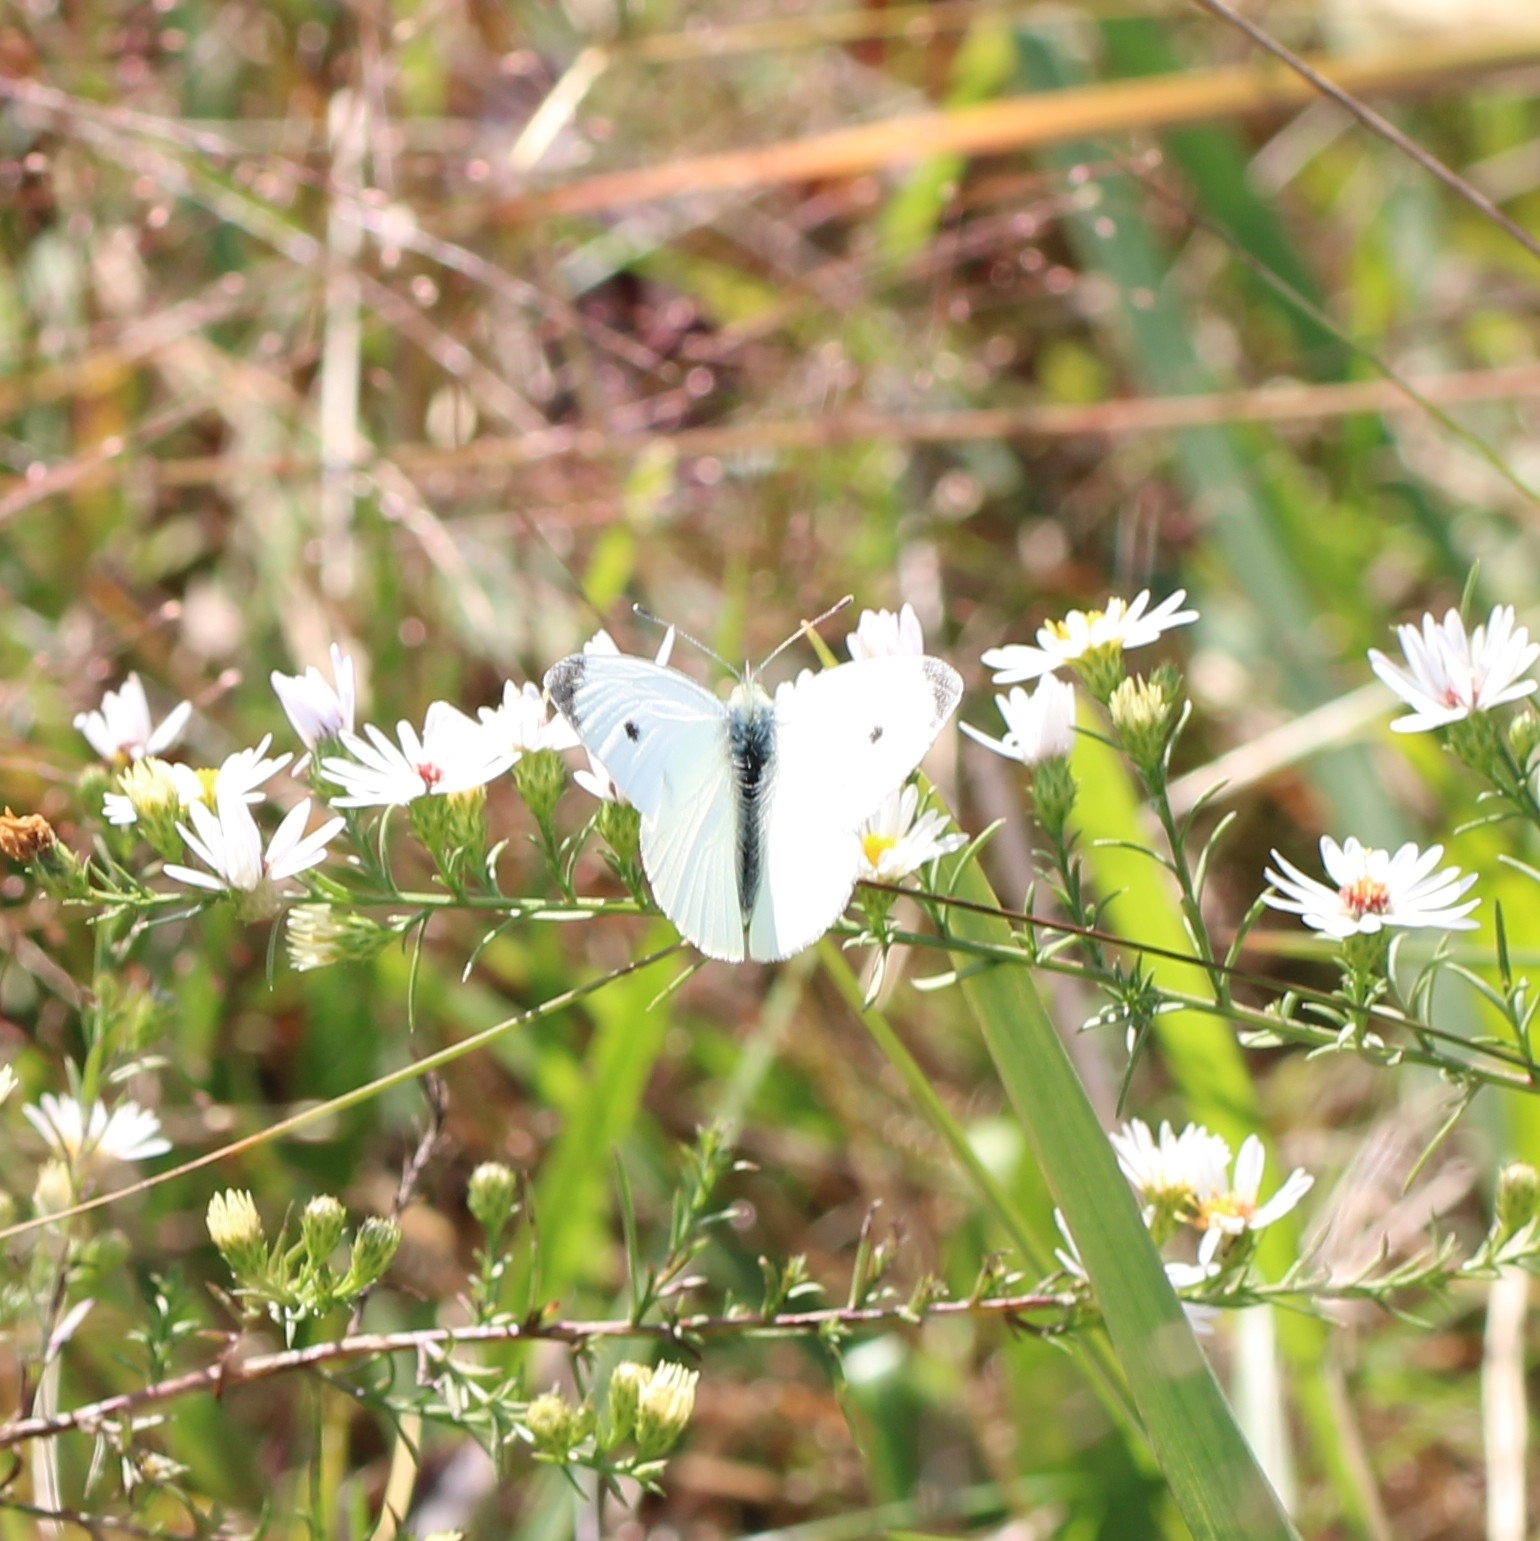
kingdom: Animalia
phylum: Arthropoda
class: Insecta
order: Lepidoptera
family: Pieridae
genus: Pieris
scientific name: Pieris rapae
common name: Small white
